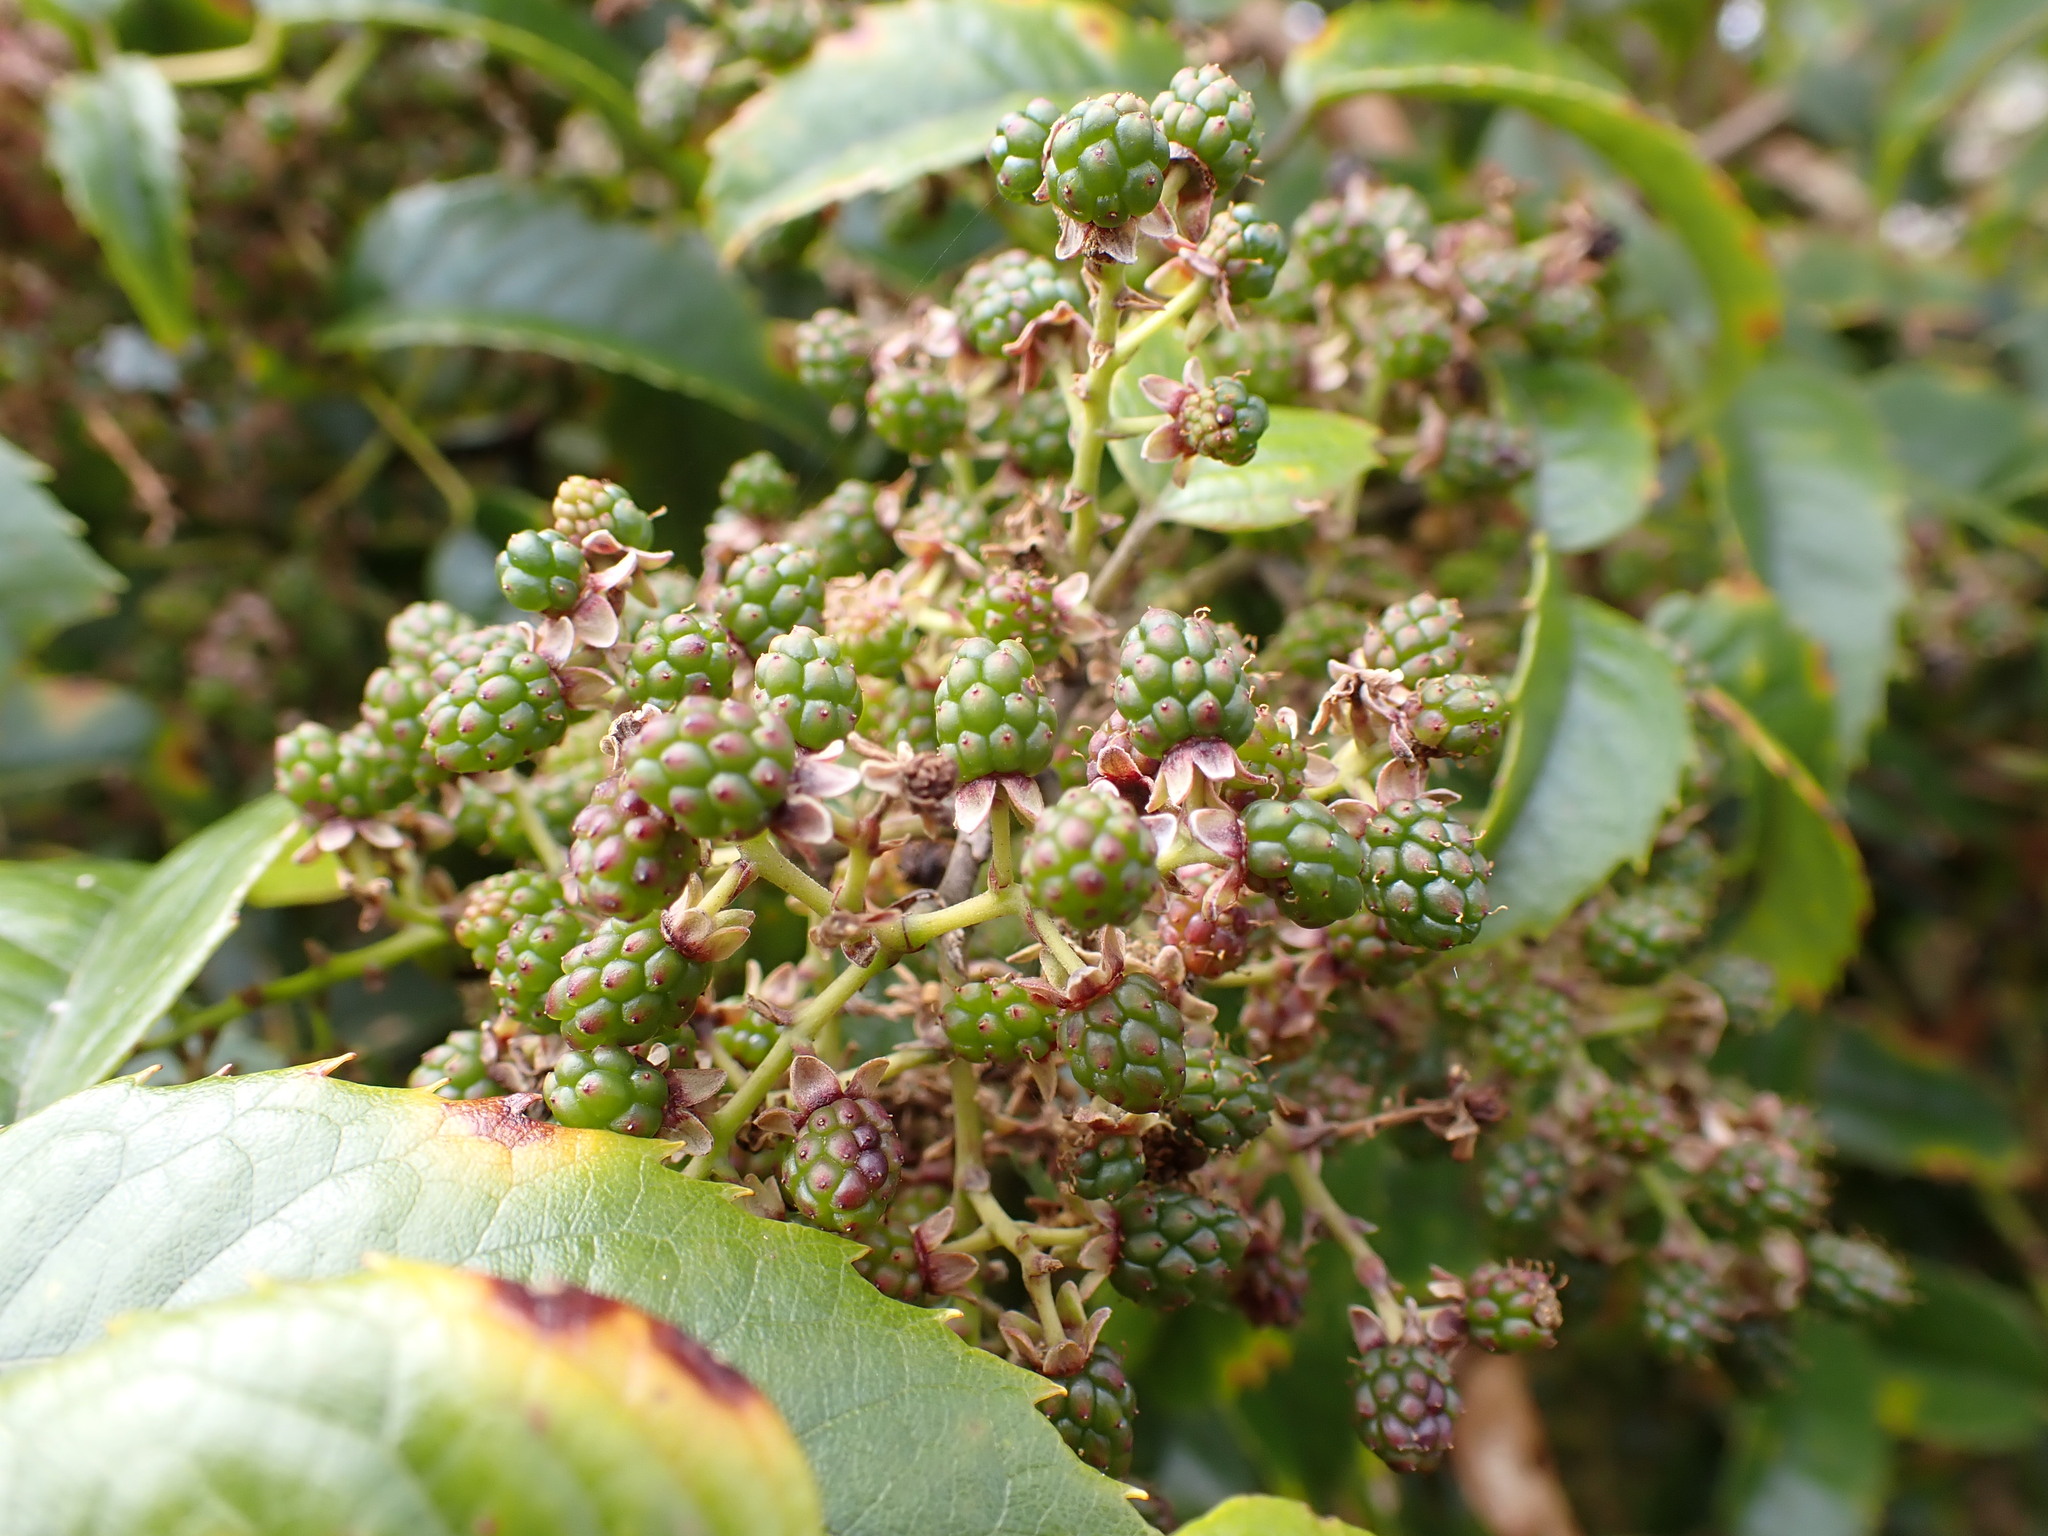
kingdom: Plantae
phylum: Tracheophyta
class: Magnoliopsida
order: Rosales
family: Rosaceae
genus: Rubus
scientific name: Rubus cissoides
